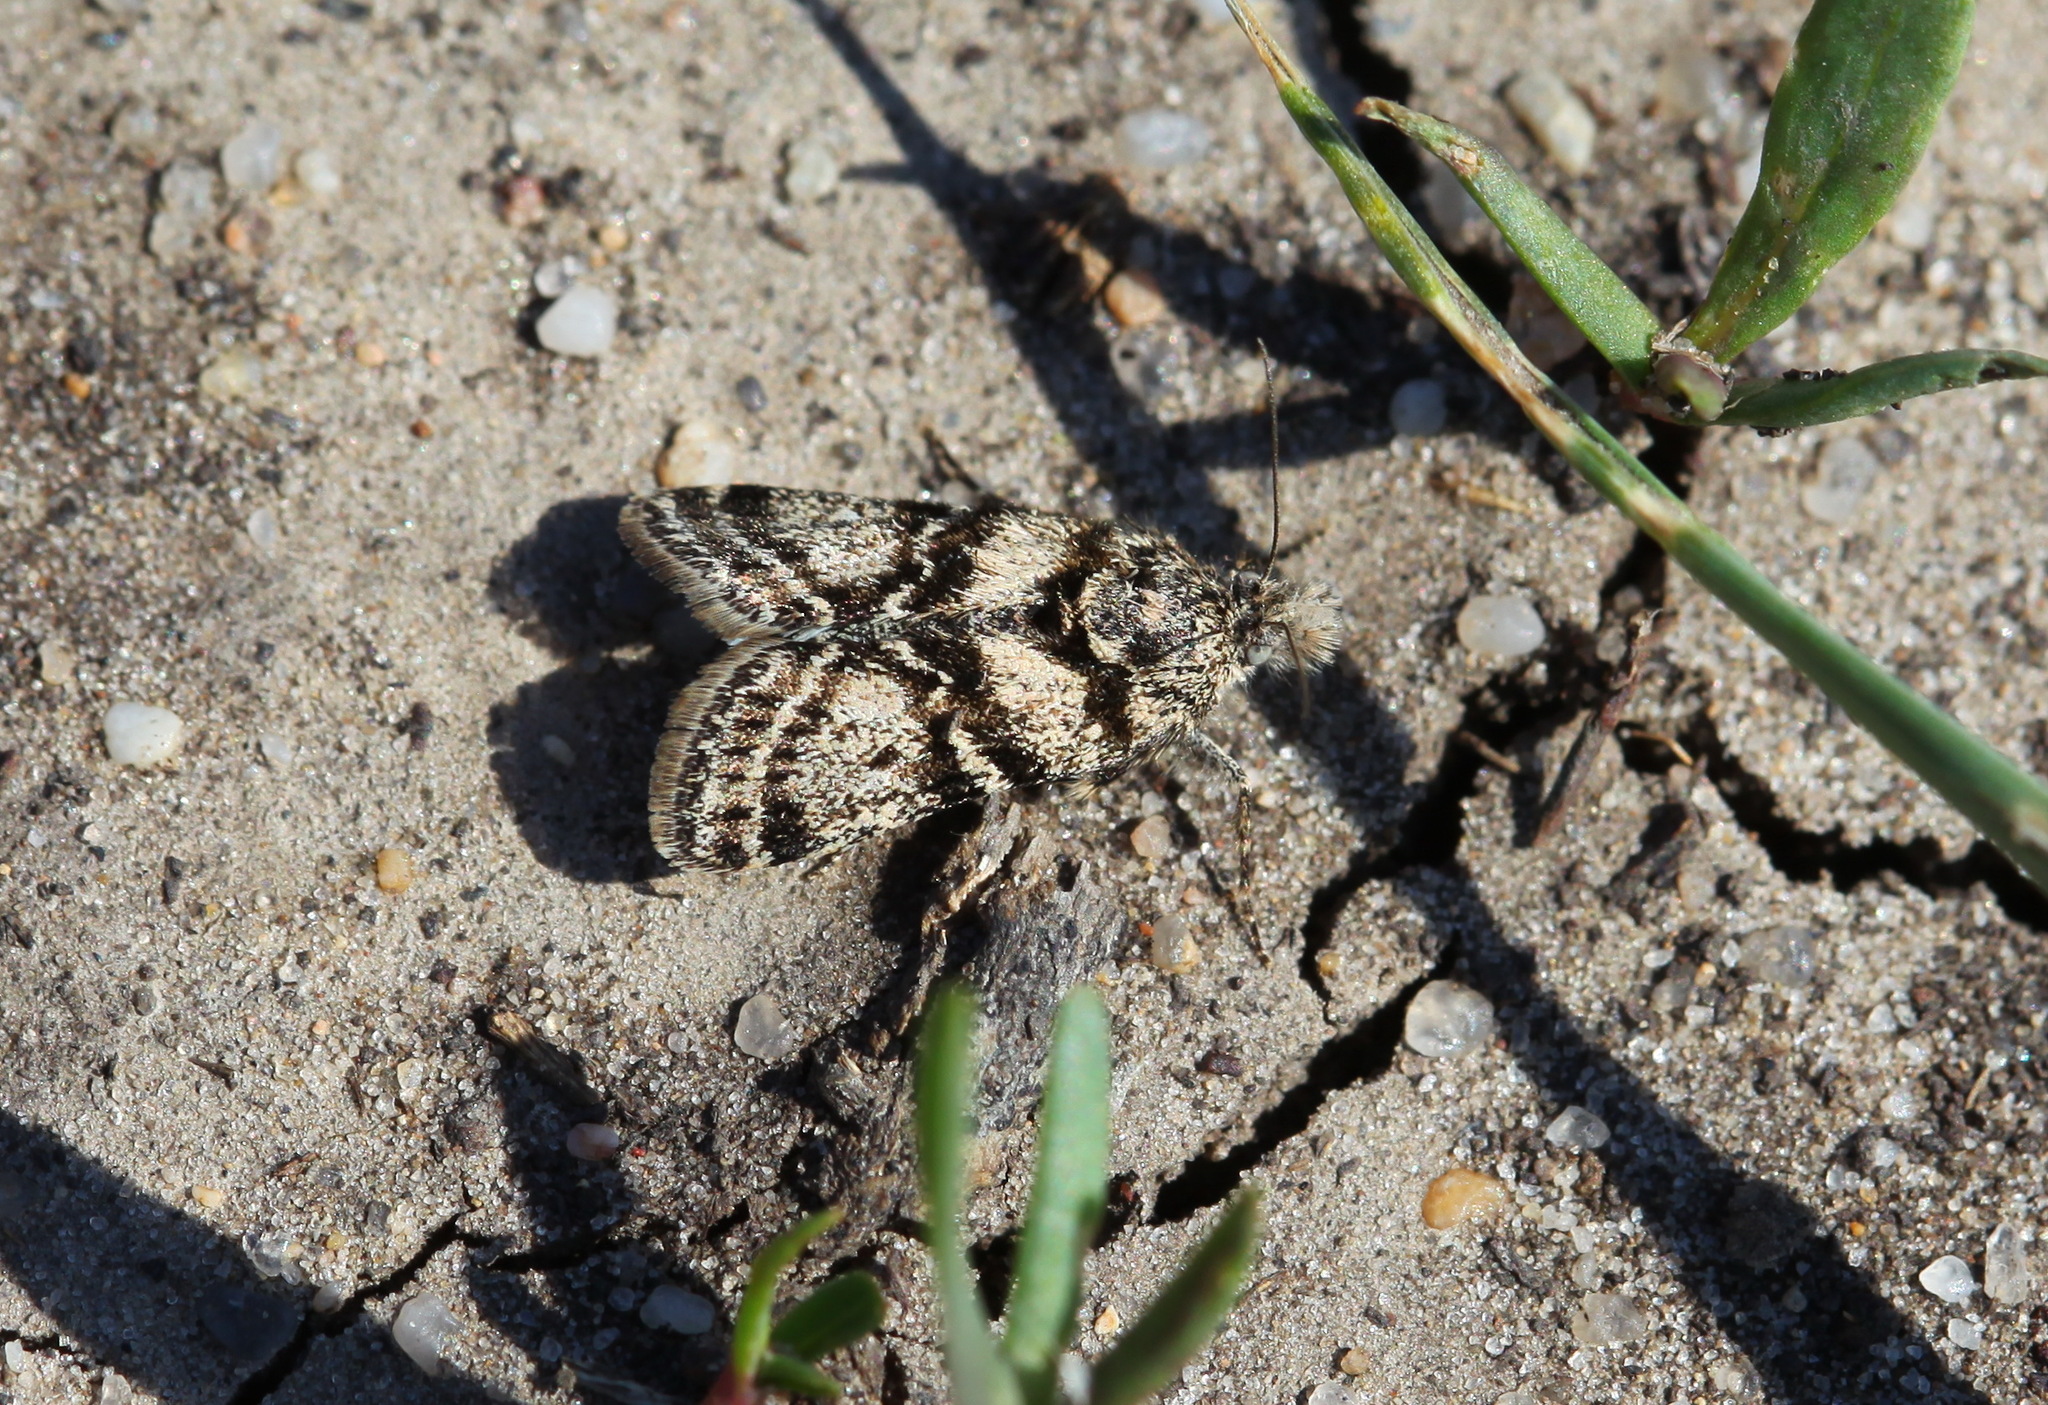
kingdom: Animalia
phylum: Arthropoda
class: Insecta
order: Lepidoptera
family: Pyralidae
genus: Ratasa
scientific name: Ratasa noctualis
